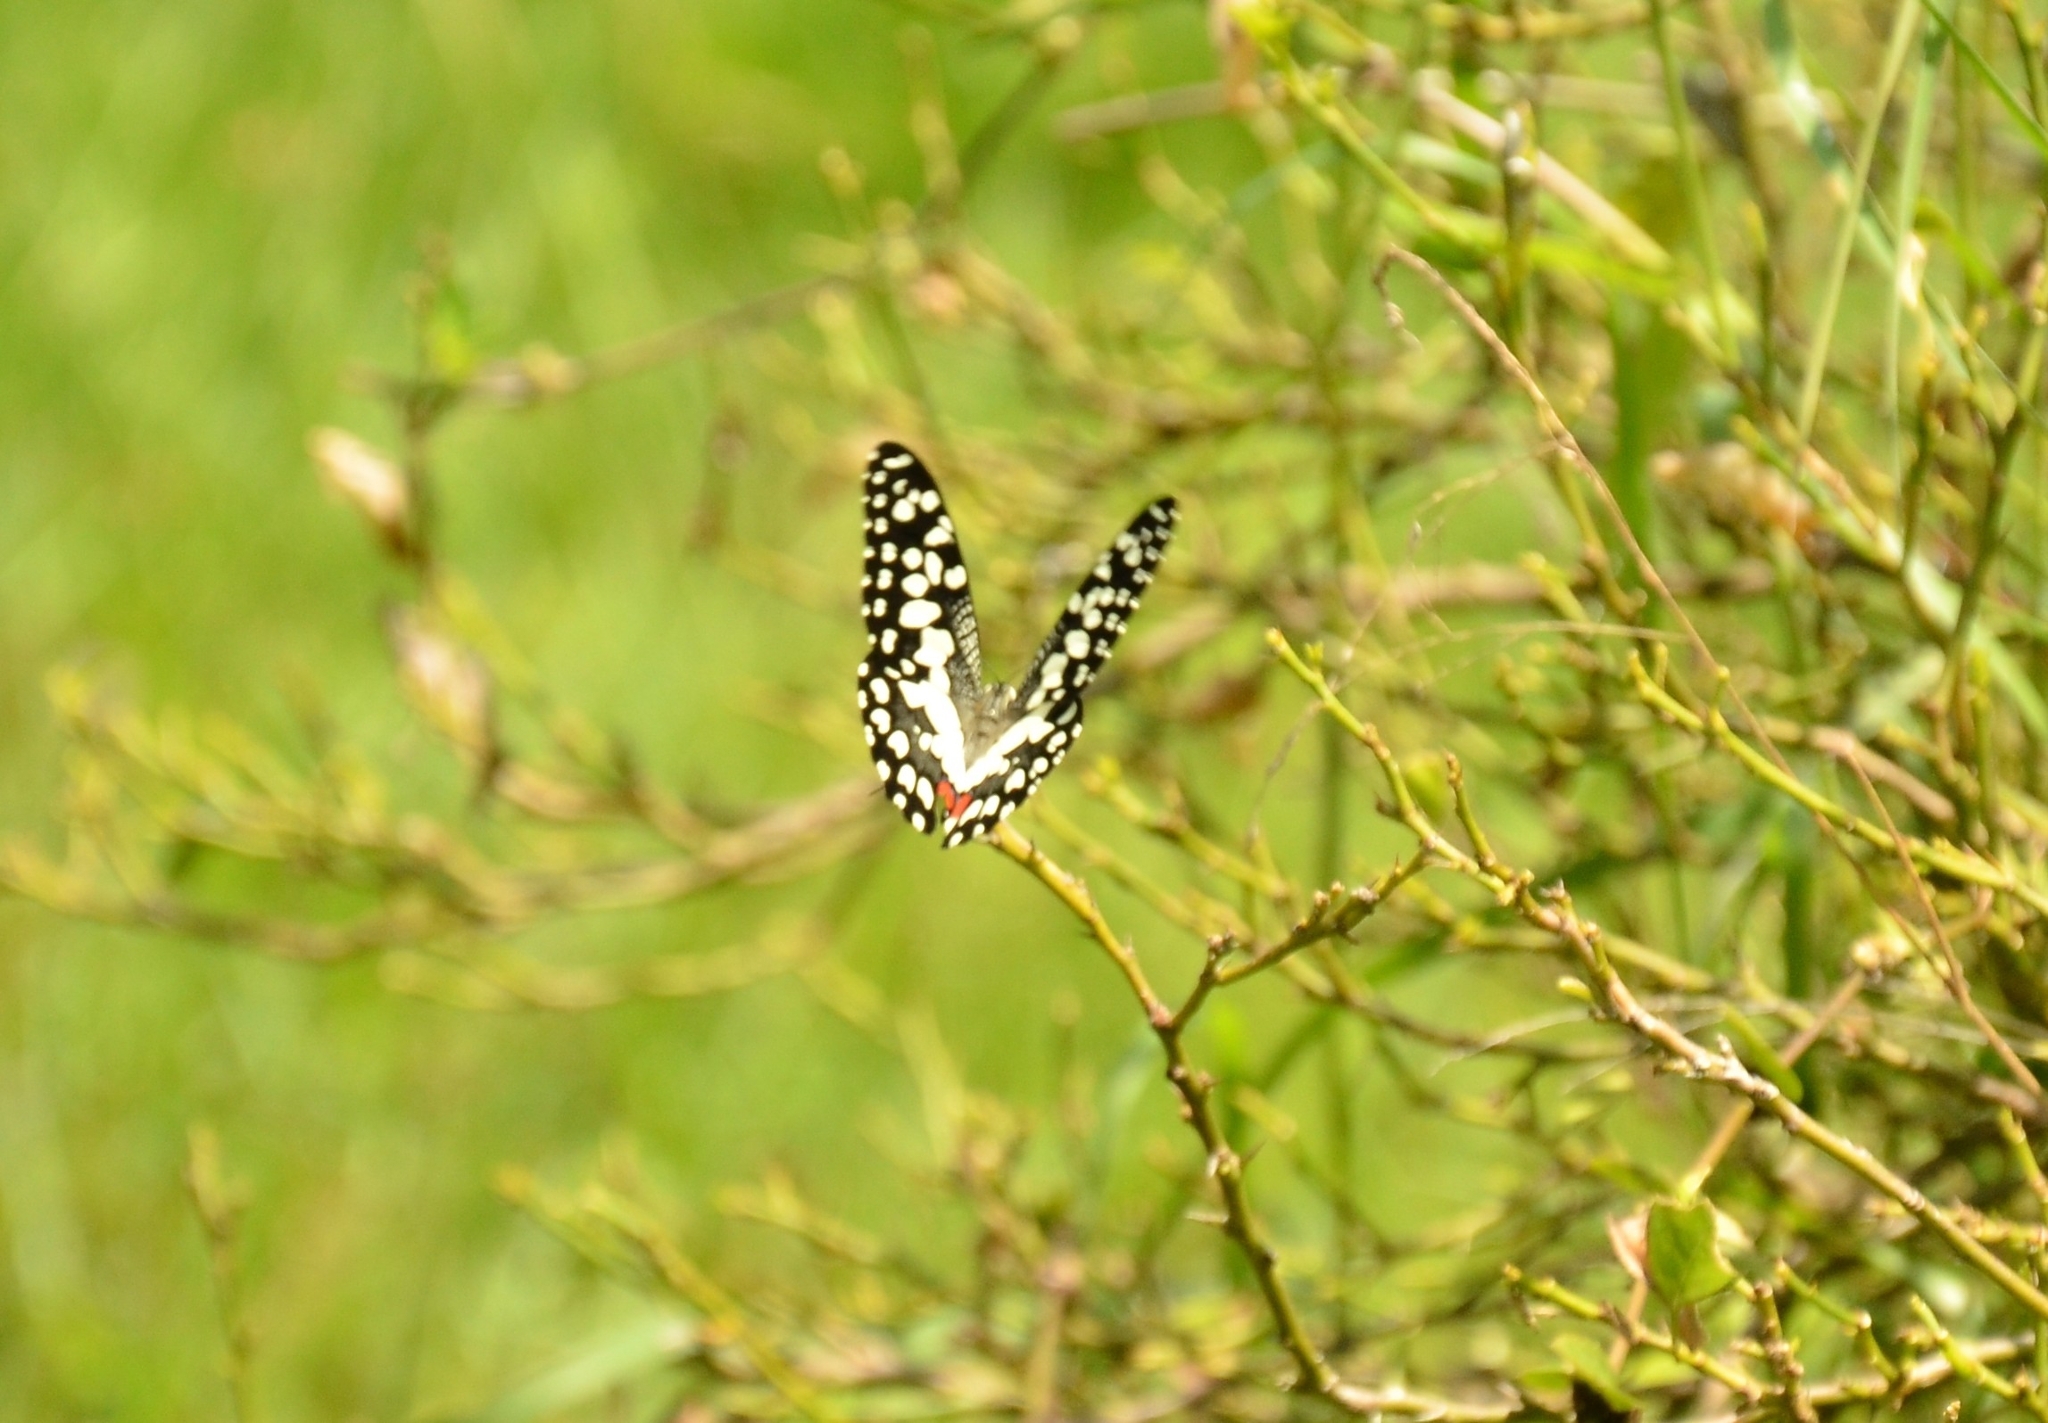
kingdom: Animalia
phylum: Arthropoda
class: Insecta
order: Lepidoptera
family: Papilionidae
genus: Papilio
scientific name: Papilio demoleus
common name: Lime butterfly
